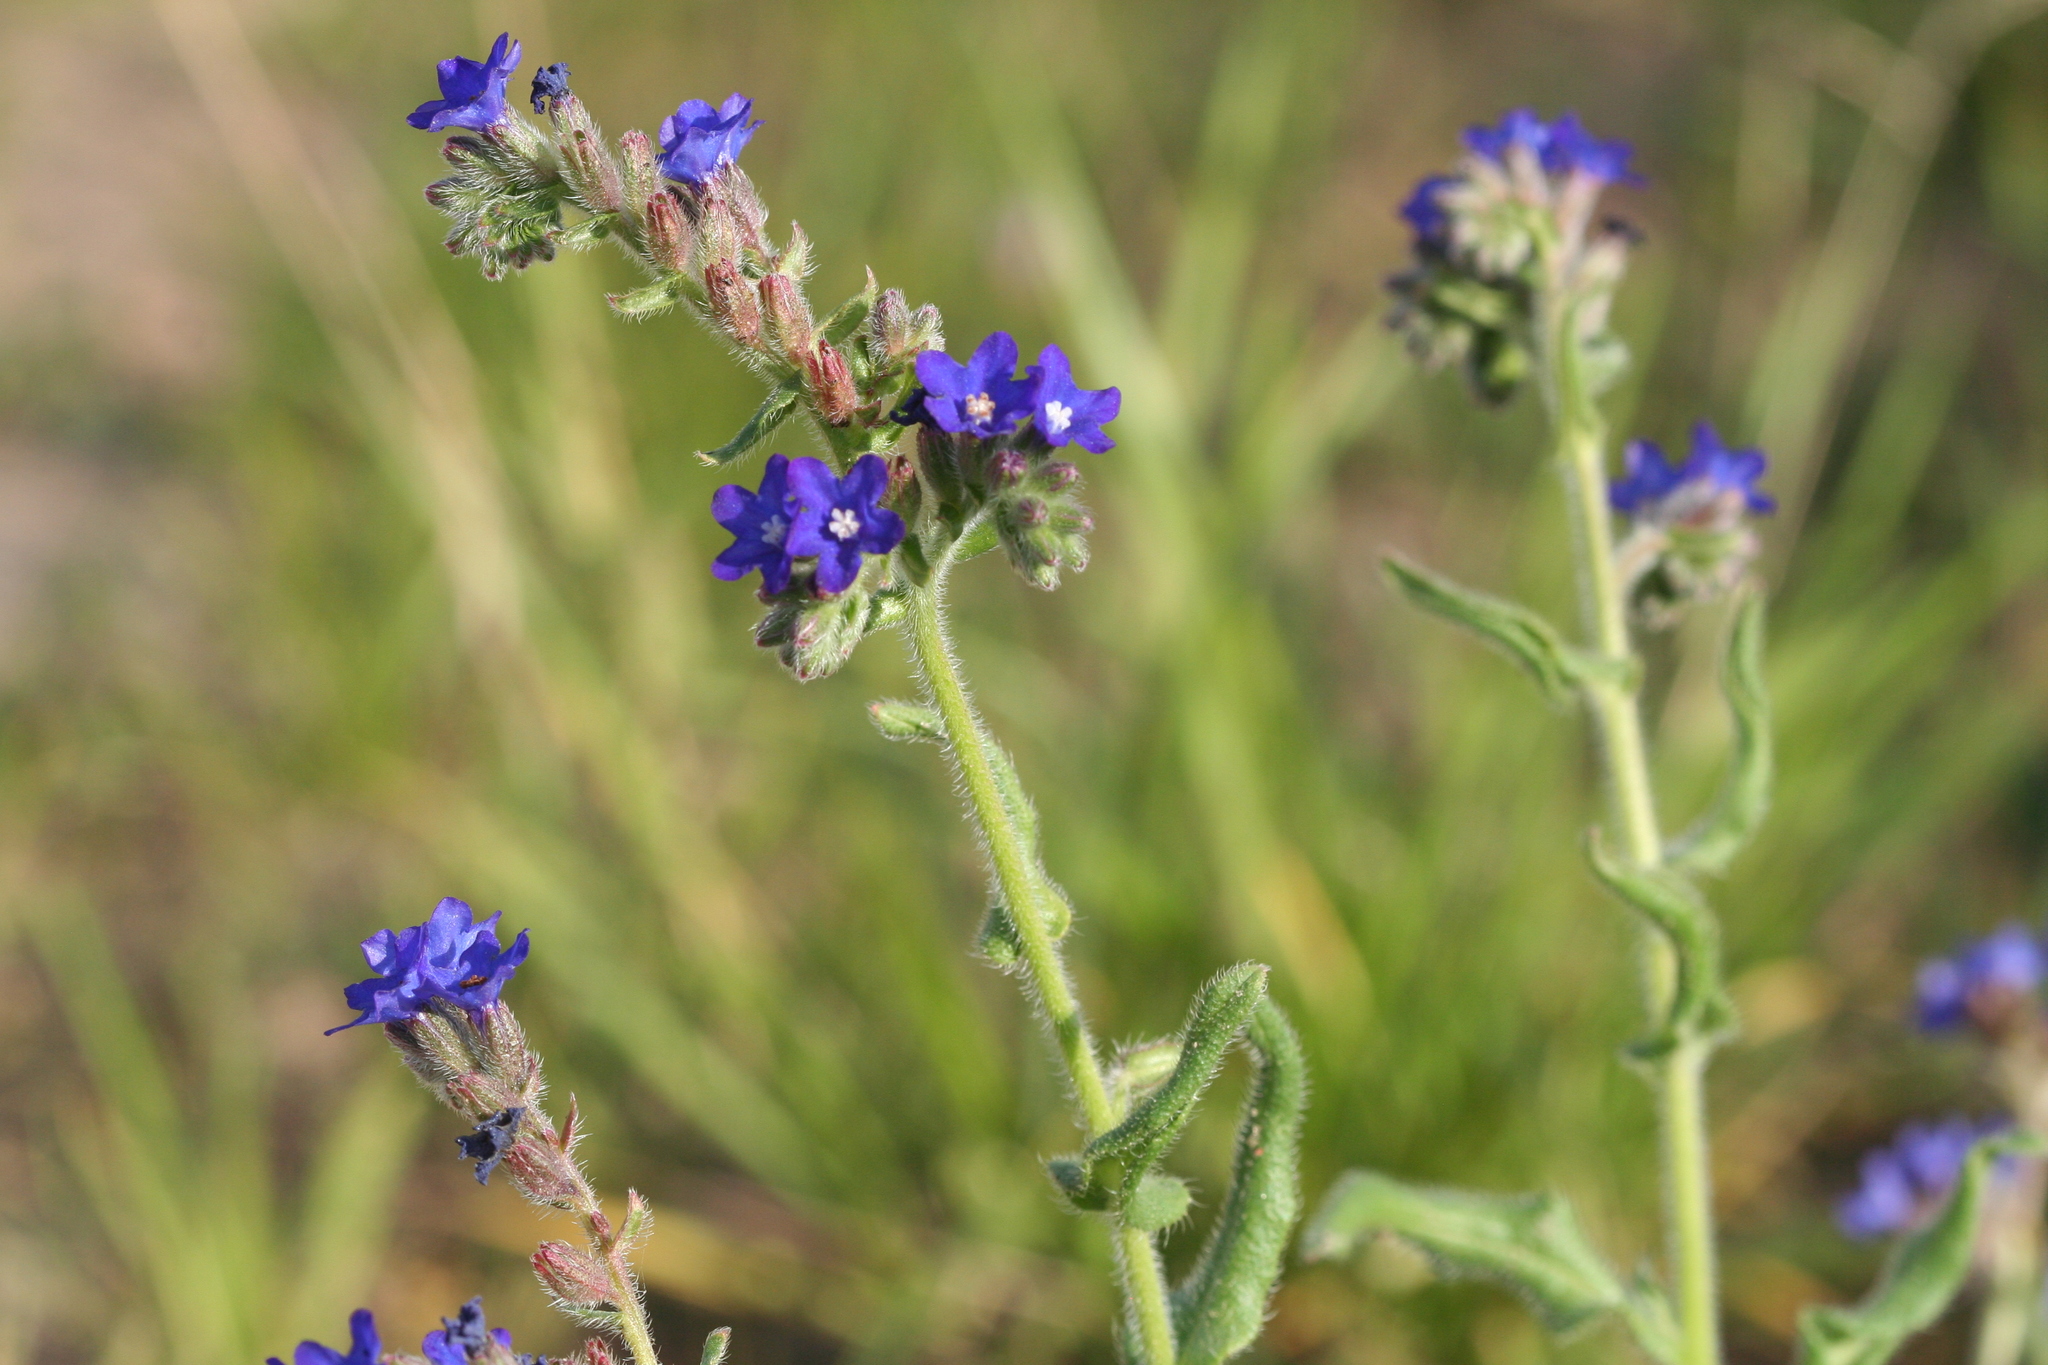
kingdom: Plantae
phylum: Tracheophyta
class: Magnoliopsida
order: Boraginales
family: Boraginaceae
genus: Anchusa
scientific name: Anchusa officinalis
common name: Alkanet
